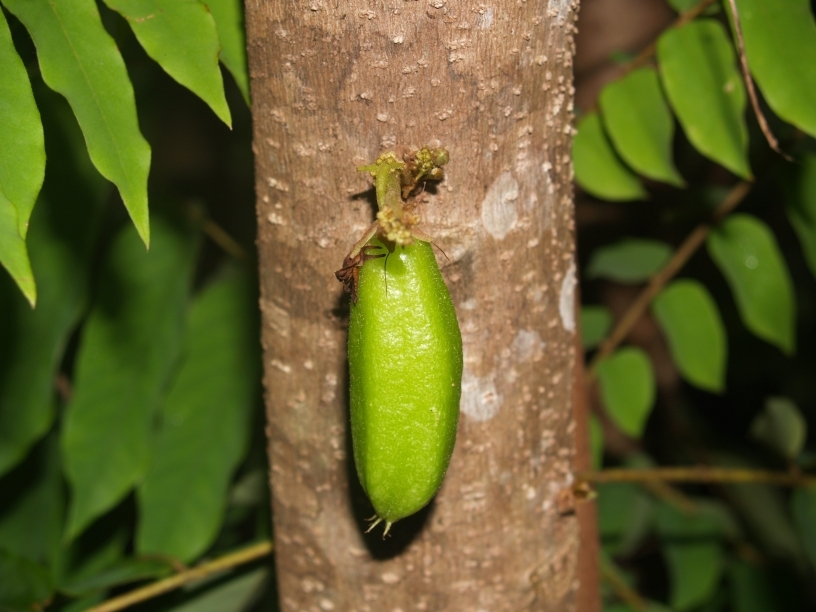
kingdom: Plantae
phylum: Tracheophyta
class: Magnoliopsida
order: Oxalidales
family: Oxalidaceae
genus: Averrhoa
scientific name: Averrhoa bilimbi
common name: Bilimbi
